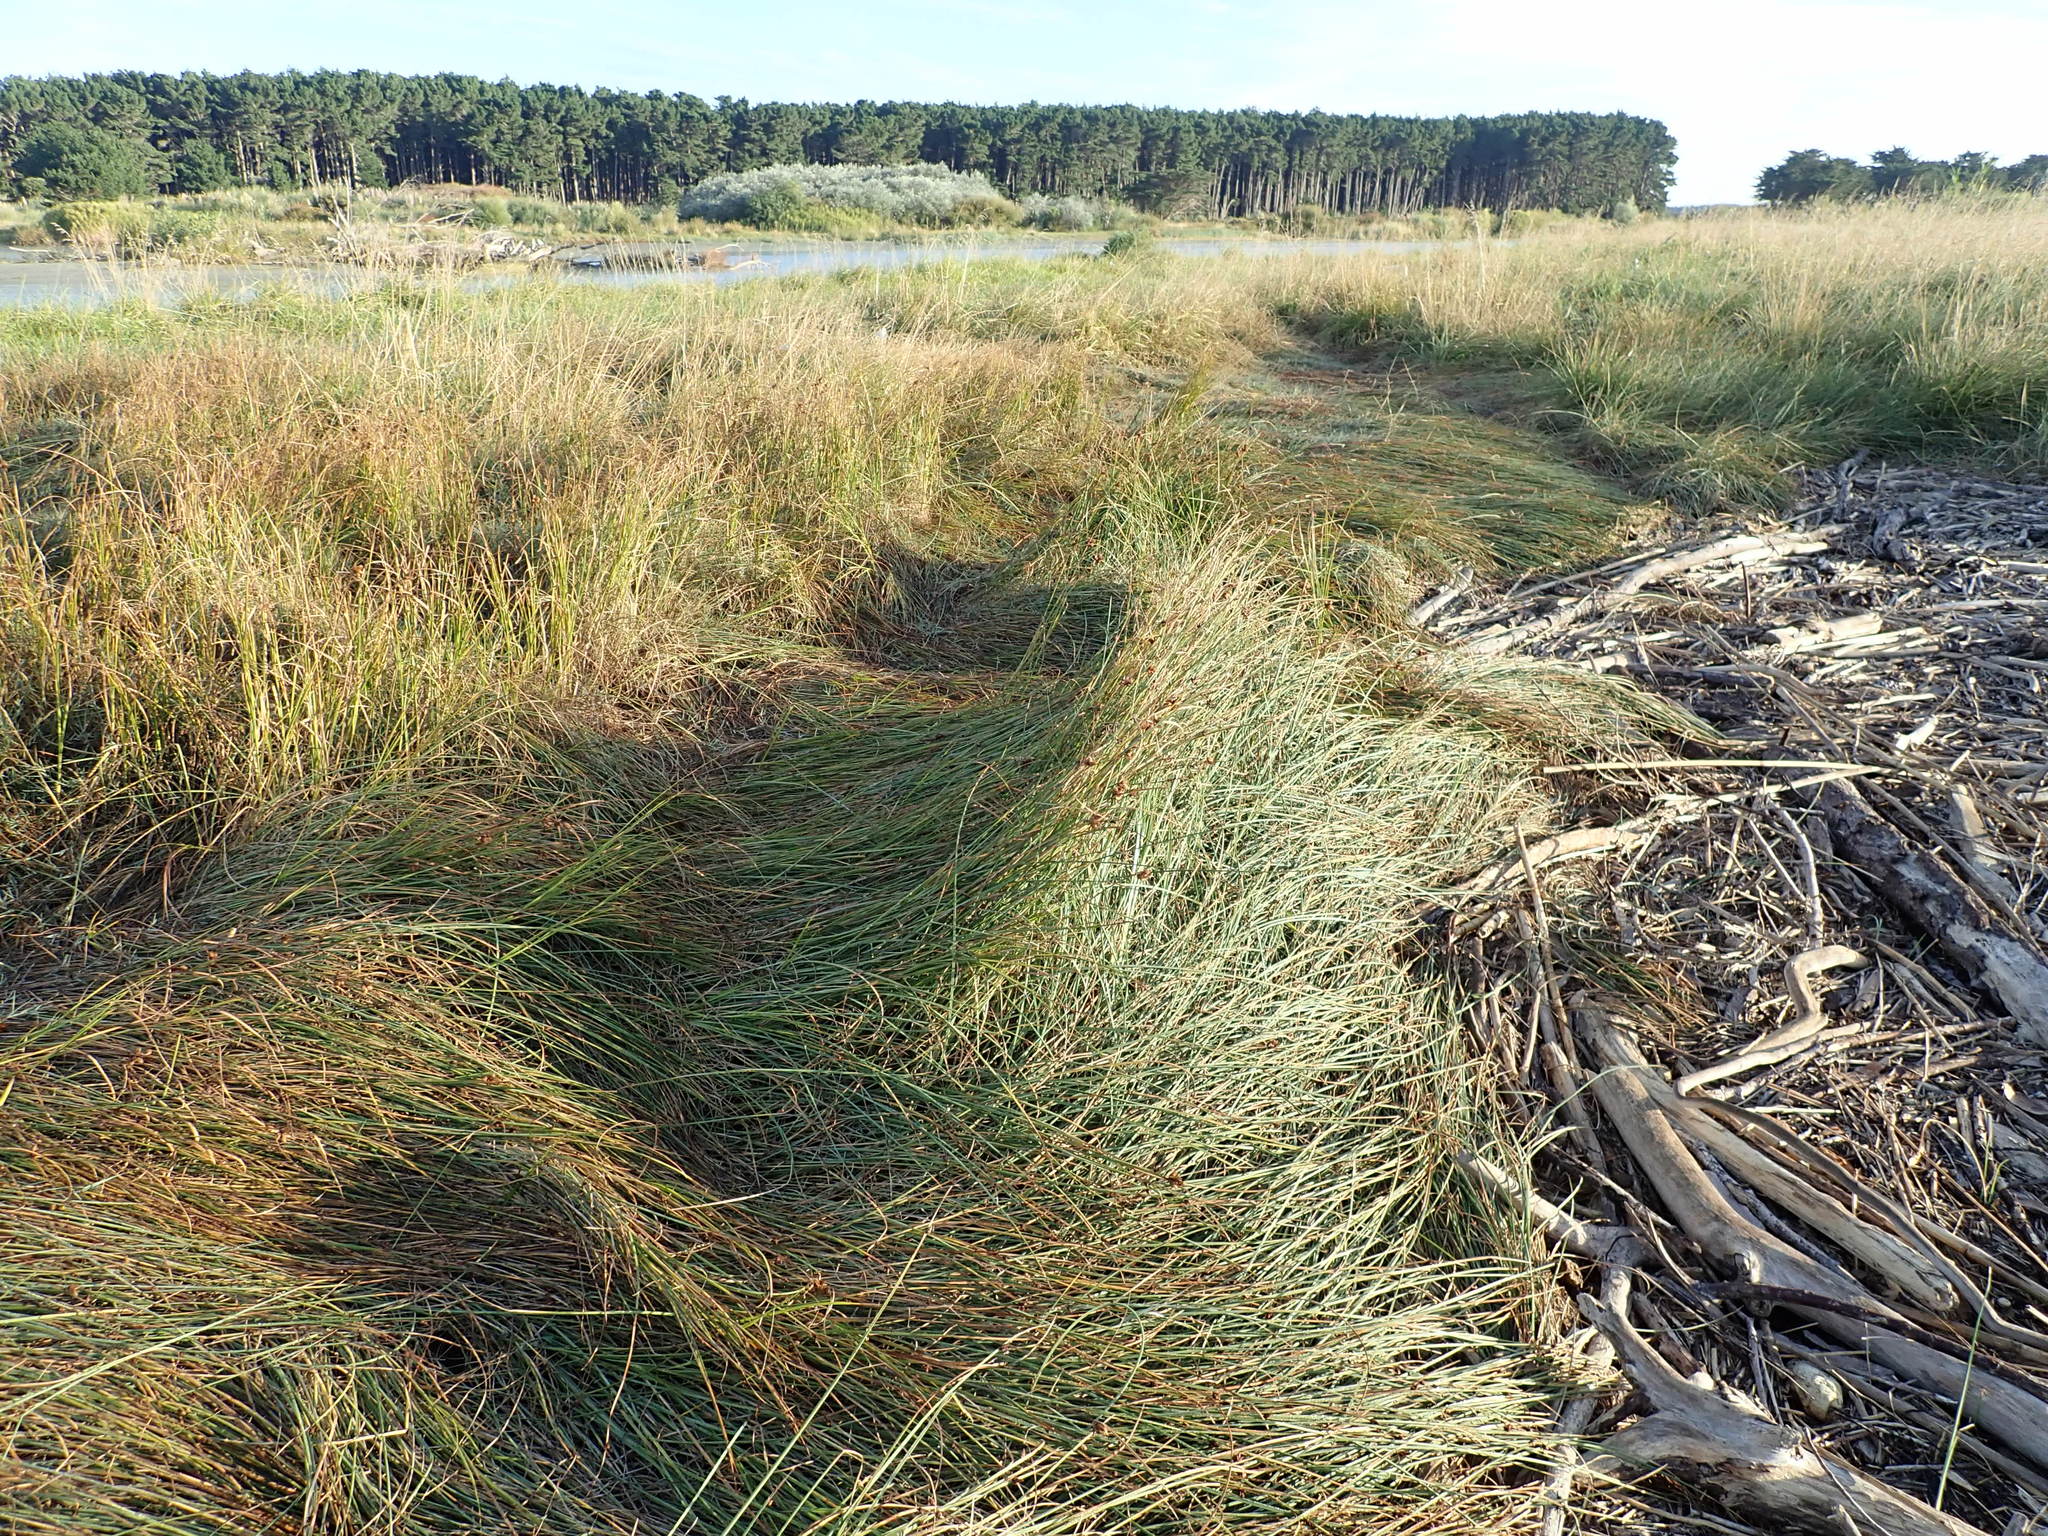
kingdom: Plantae
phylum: Tracheophyta
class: Liliopsida
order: Poales
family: Cyperaceae
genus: Bolboschoenus
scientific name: Bolboschoenus caldwellii
